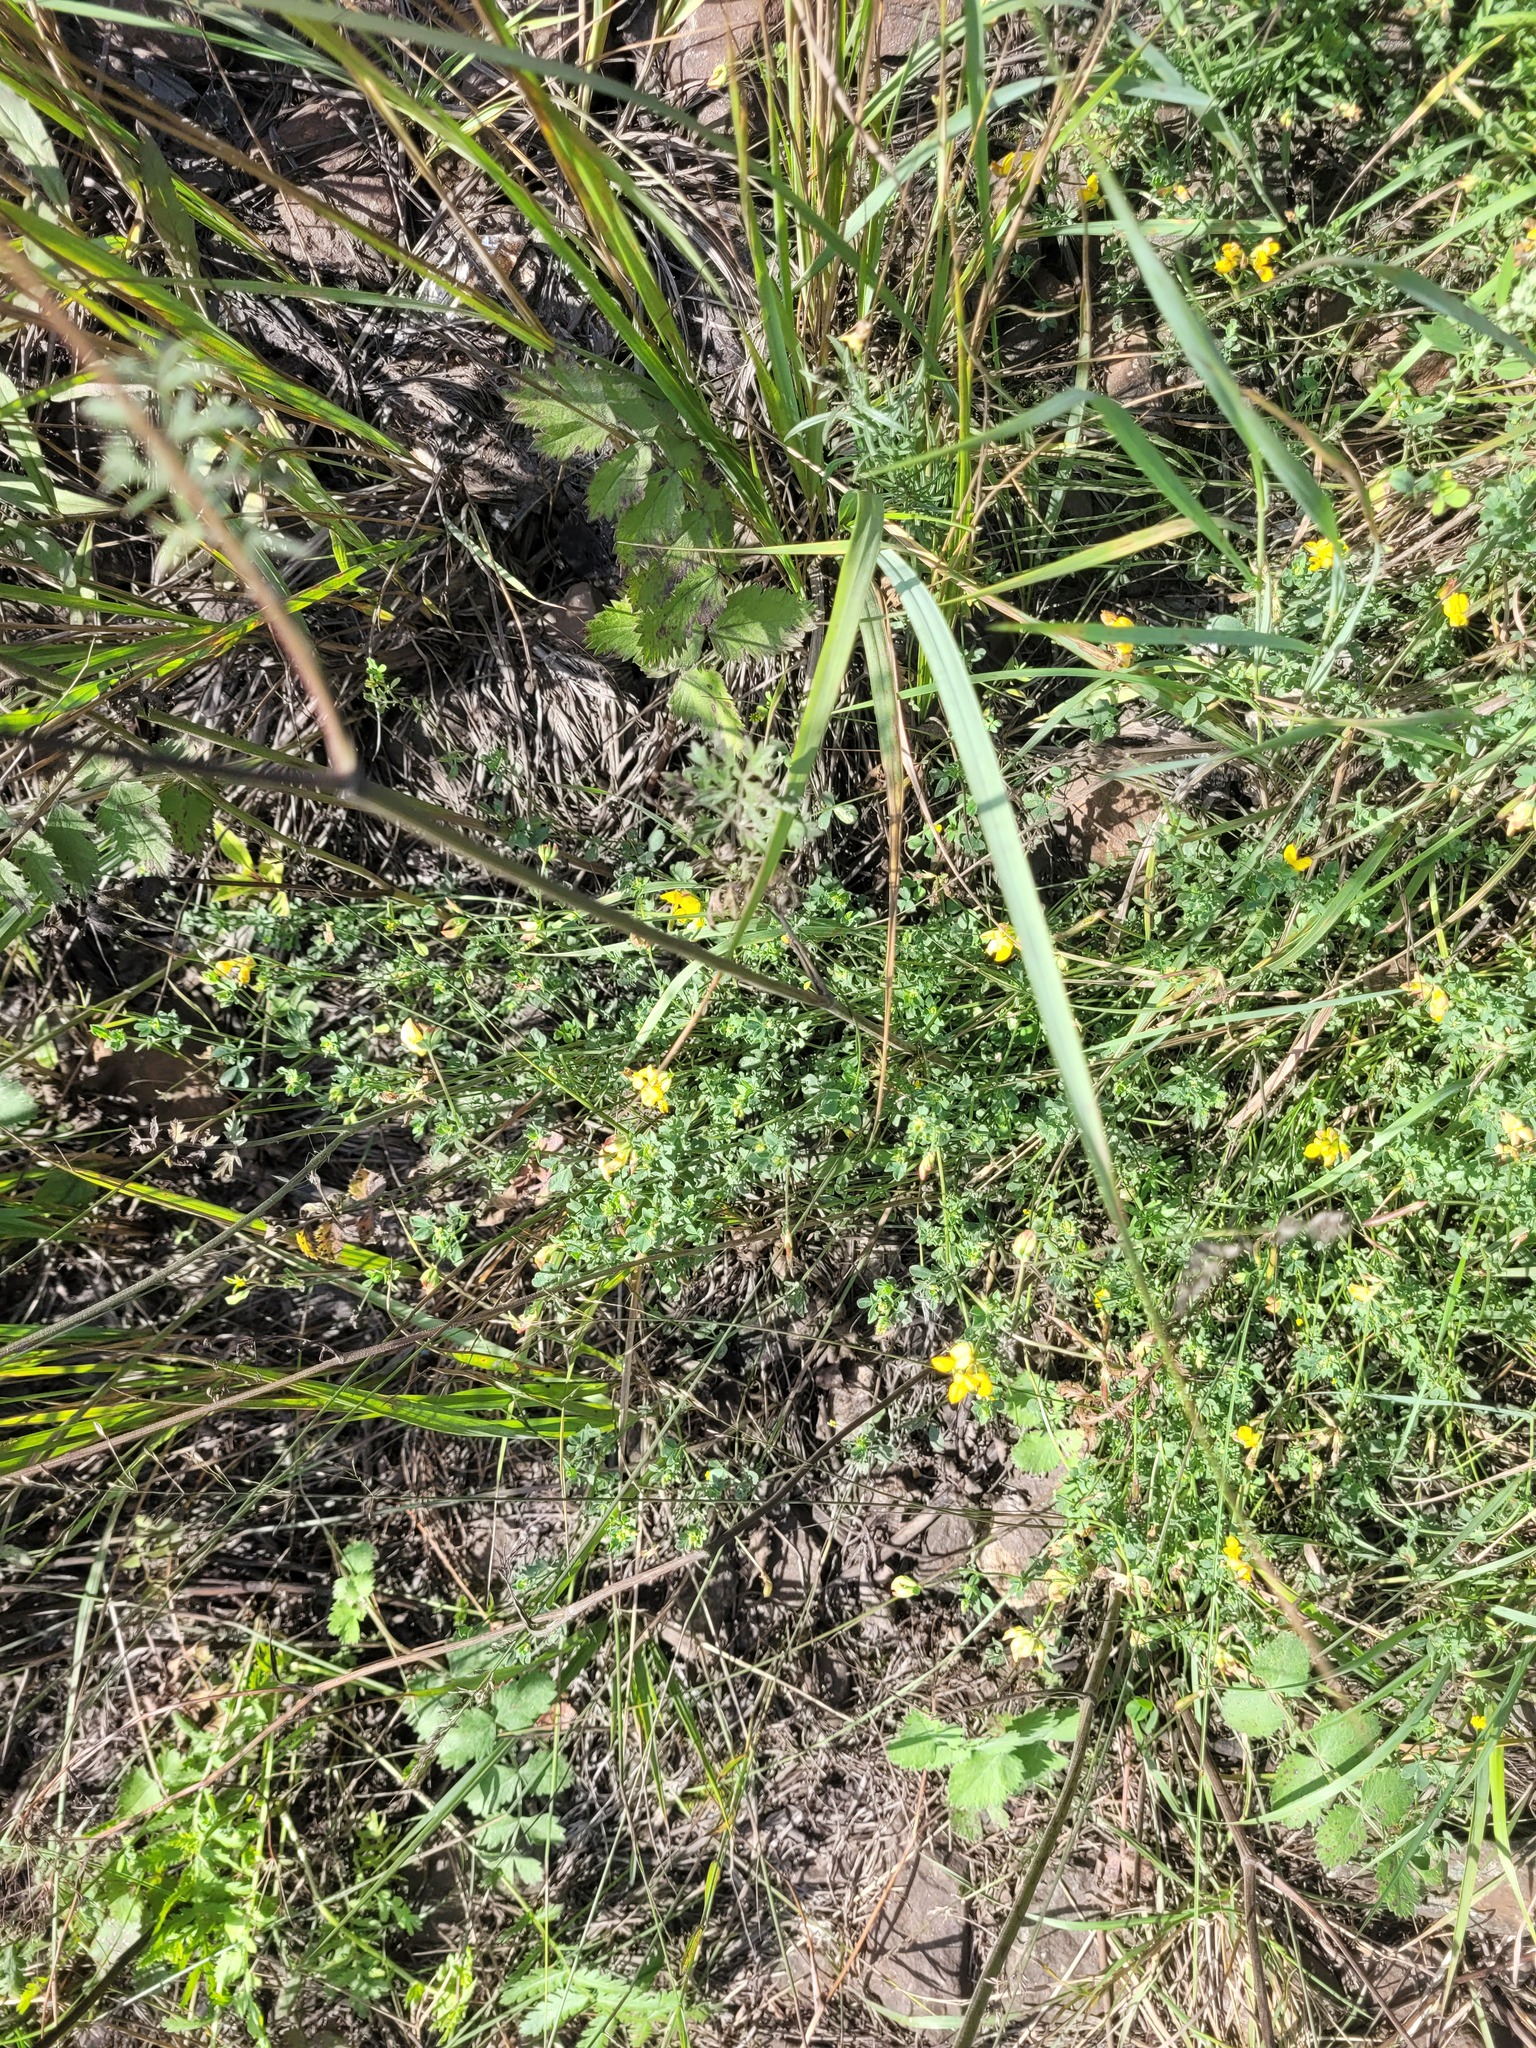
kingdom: Plantae
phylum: Tracheophyta
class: Magnoliopsida
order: Fabales
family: Fabaceae
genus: Lotus
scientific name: Lotus corniculatus
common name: Common bird's-foot-trefoil
